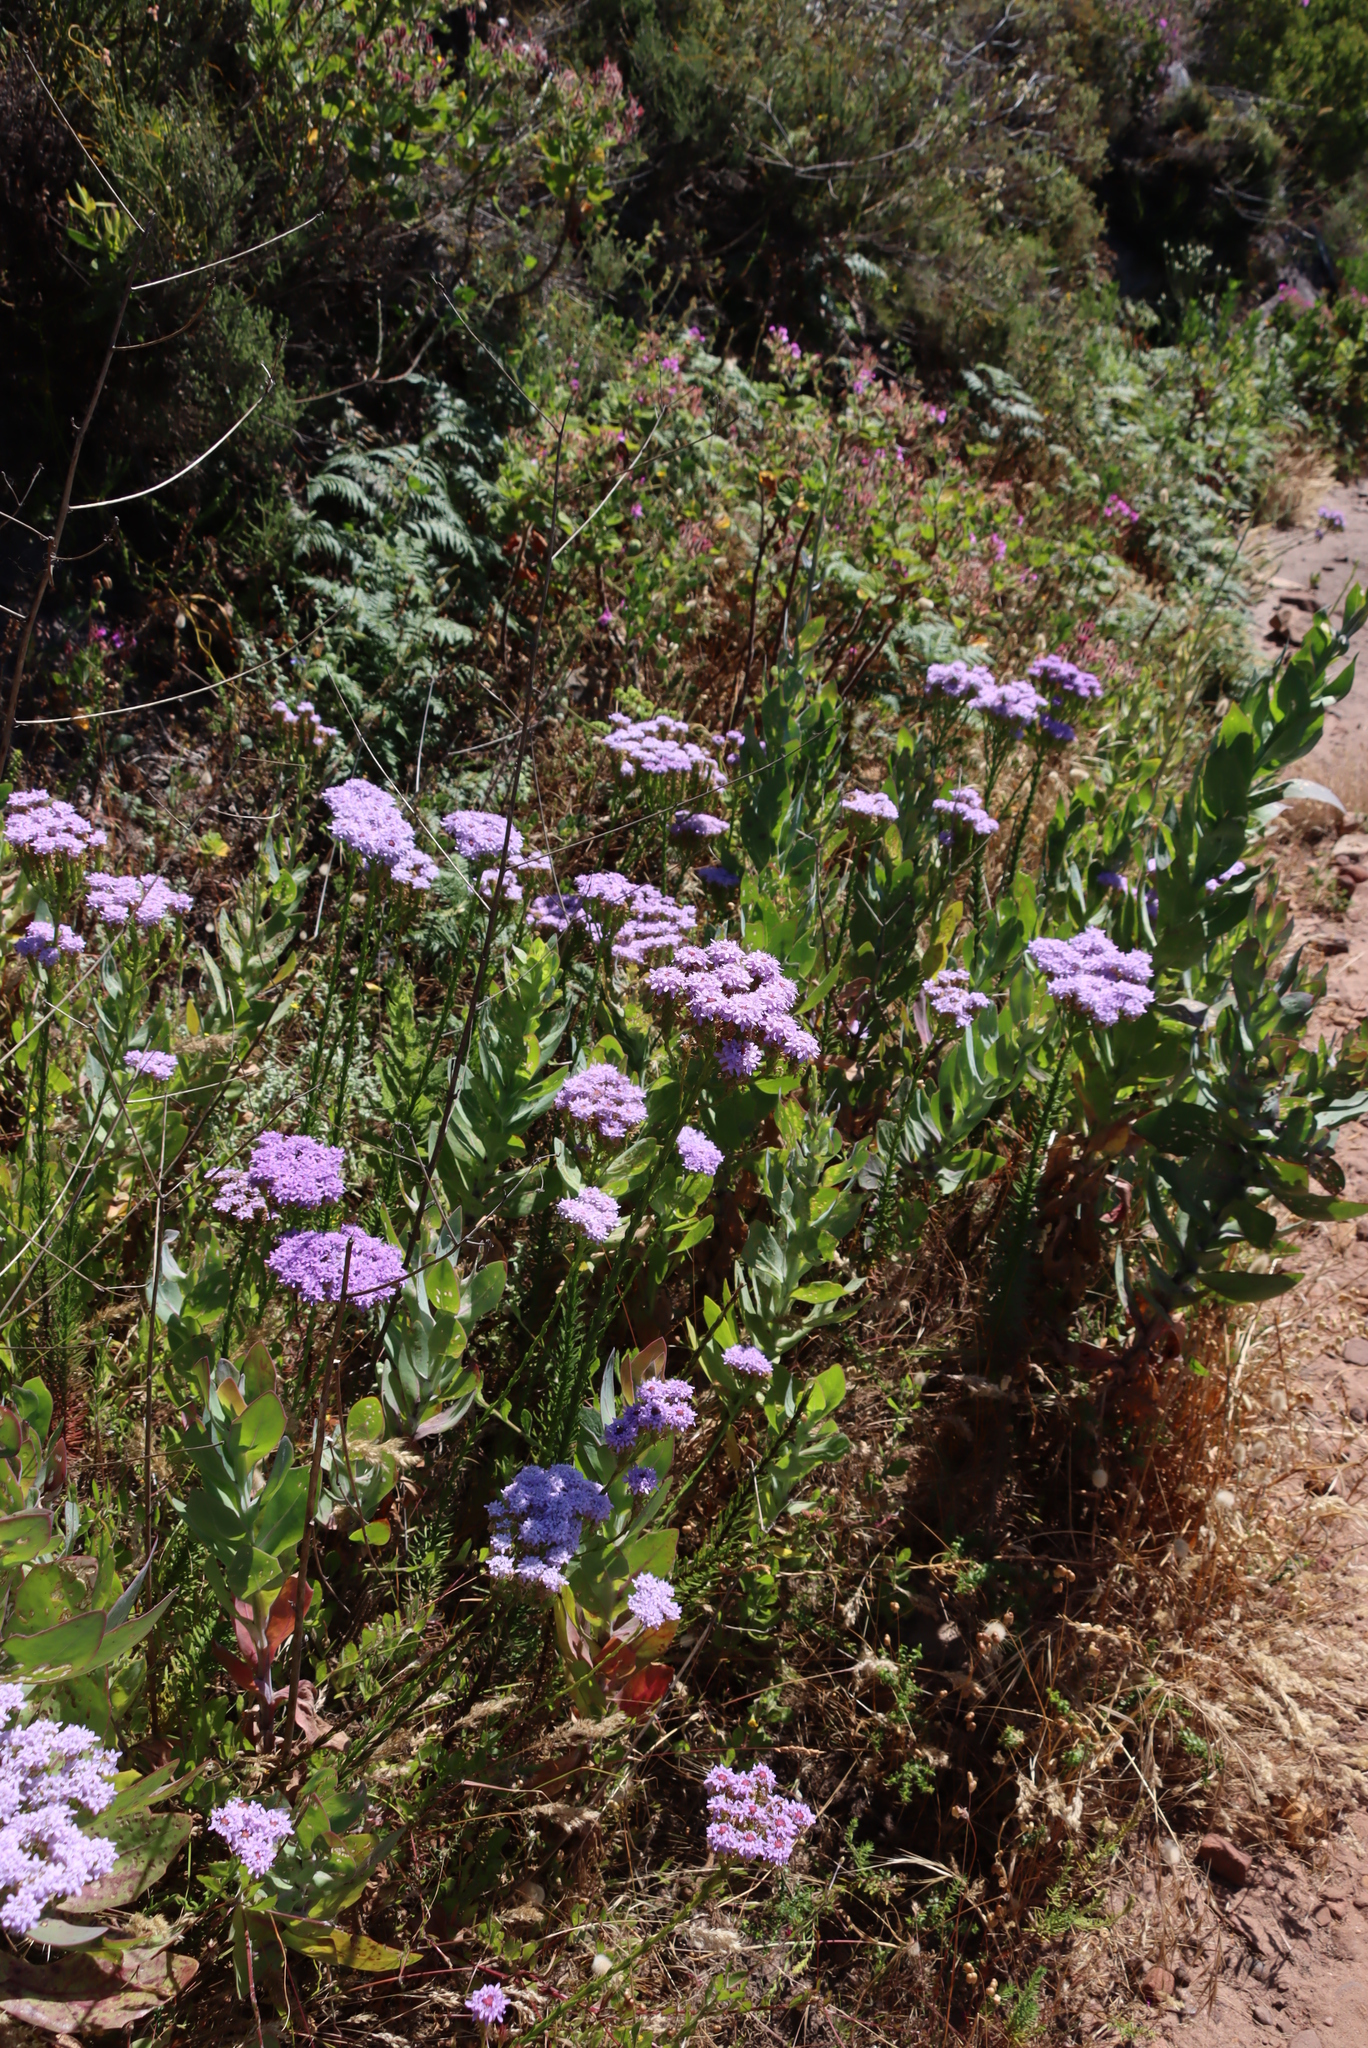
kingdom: Plantae
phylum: Tracheophyta
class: Magnoliopsida
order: Lamiales
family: Scrophulariaceae
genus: Pseudoselago
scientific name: Pseudoselago spuria
